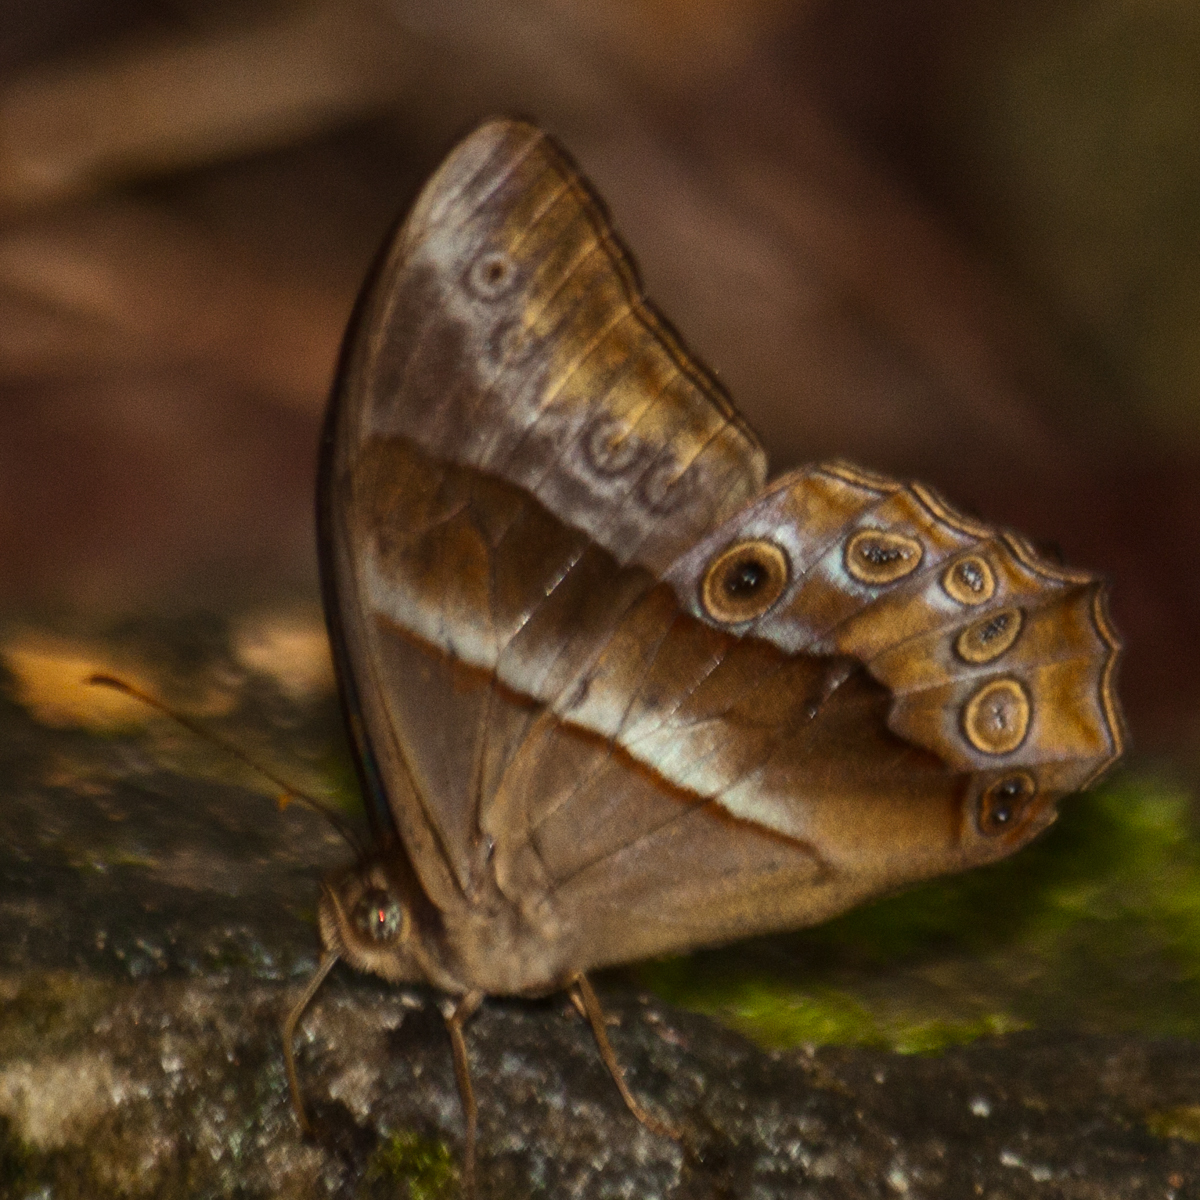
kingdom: Animalia
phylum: Arthropoda
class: Insecta
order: Lepidoptera
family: Nymphalidae
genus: Lethe
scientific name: Lethe mekara
